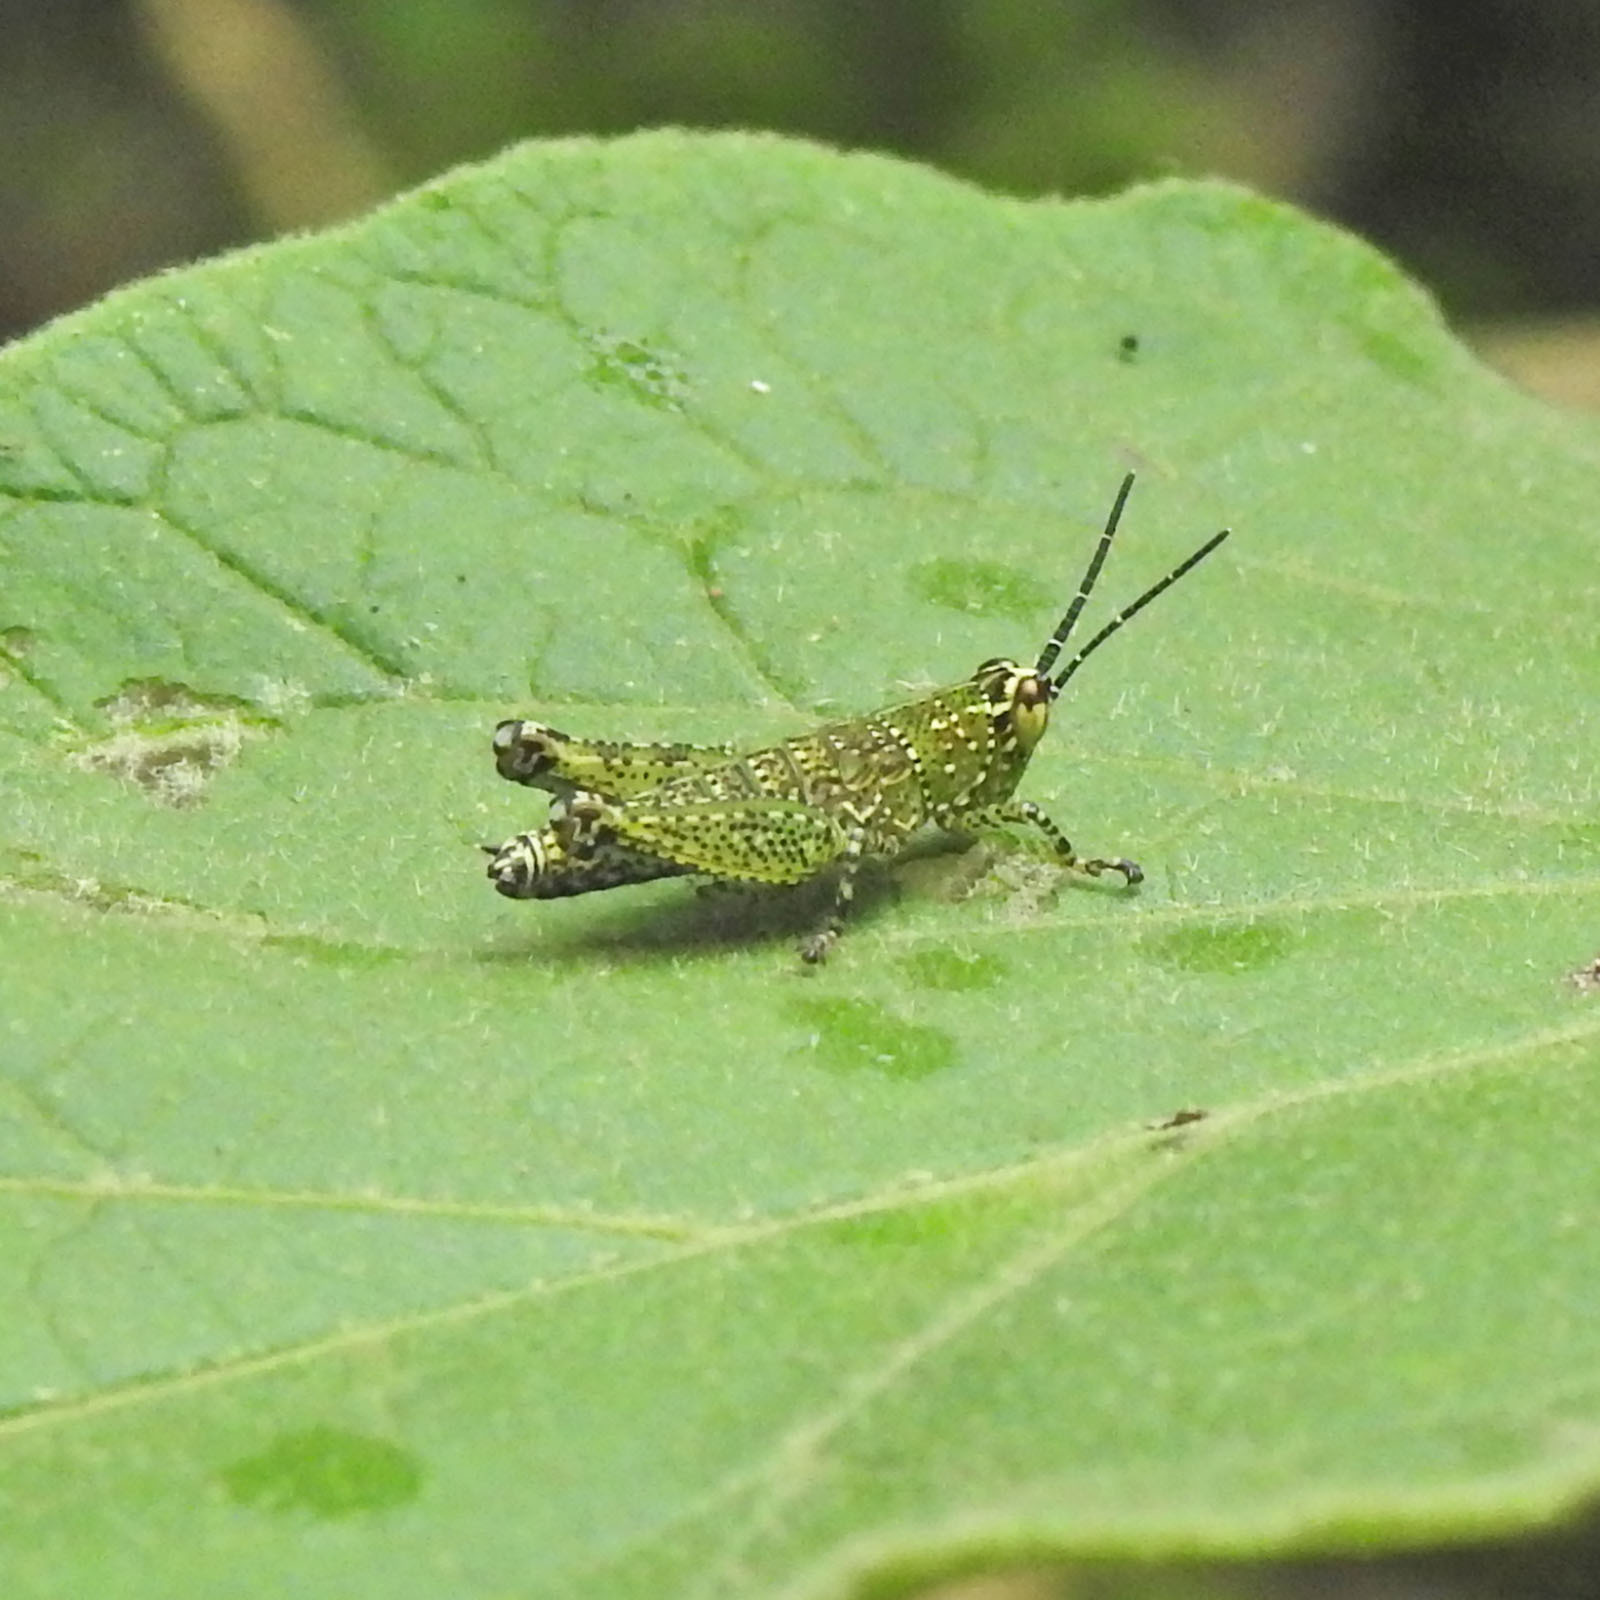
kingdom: Animalia
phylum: Arthropoda
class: Insecta
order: Orthoptera
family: Acrididae
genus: Xenocatantops
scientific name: Xenocatantops humile
